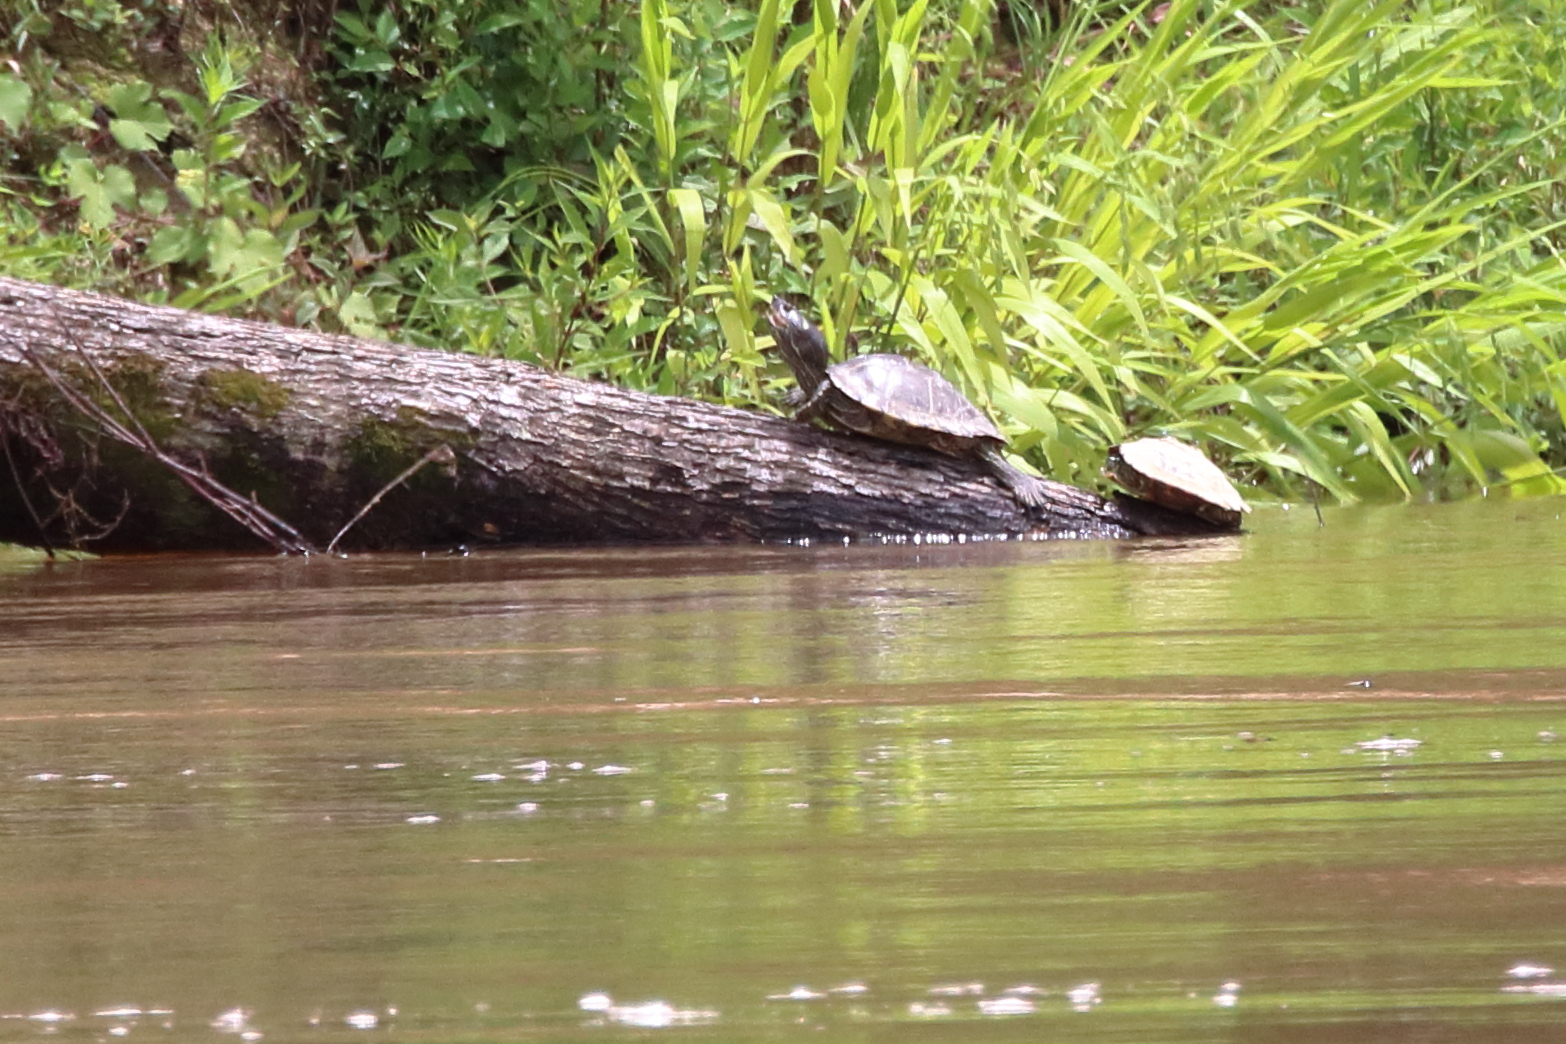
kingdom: Animalia
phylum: Chordata
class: Testudines
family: Emydidae
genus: Graptemys
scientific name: Graptemys pearlensis
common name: Pearl river map turtle
